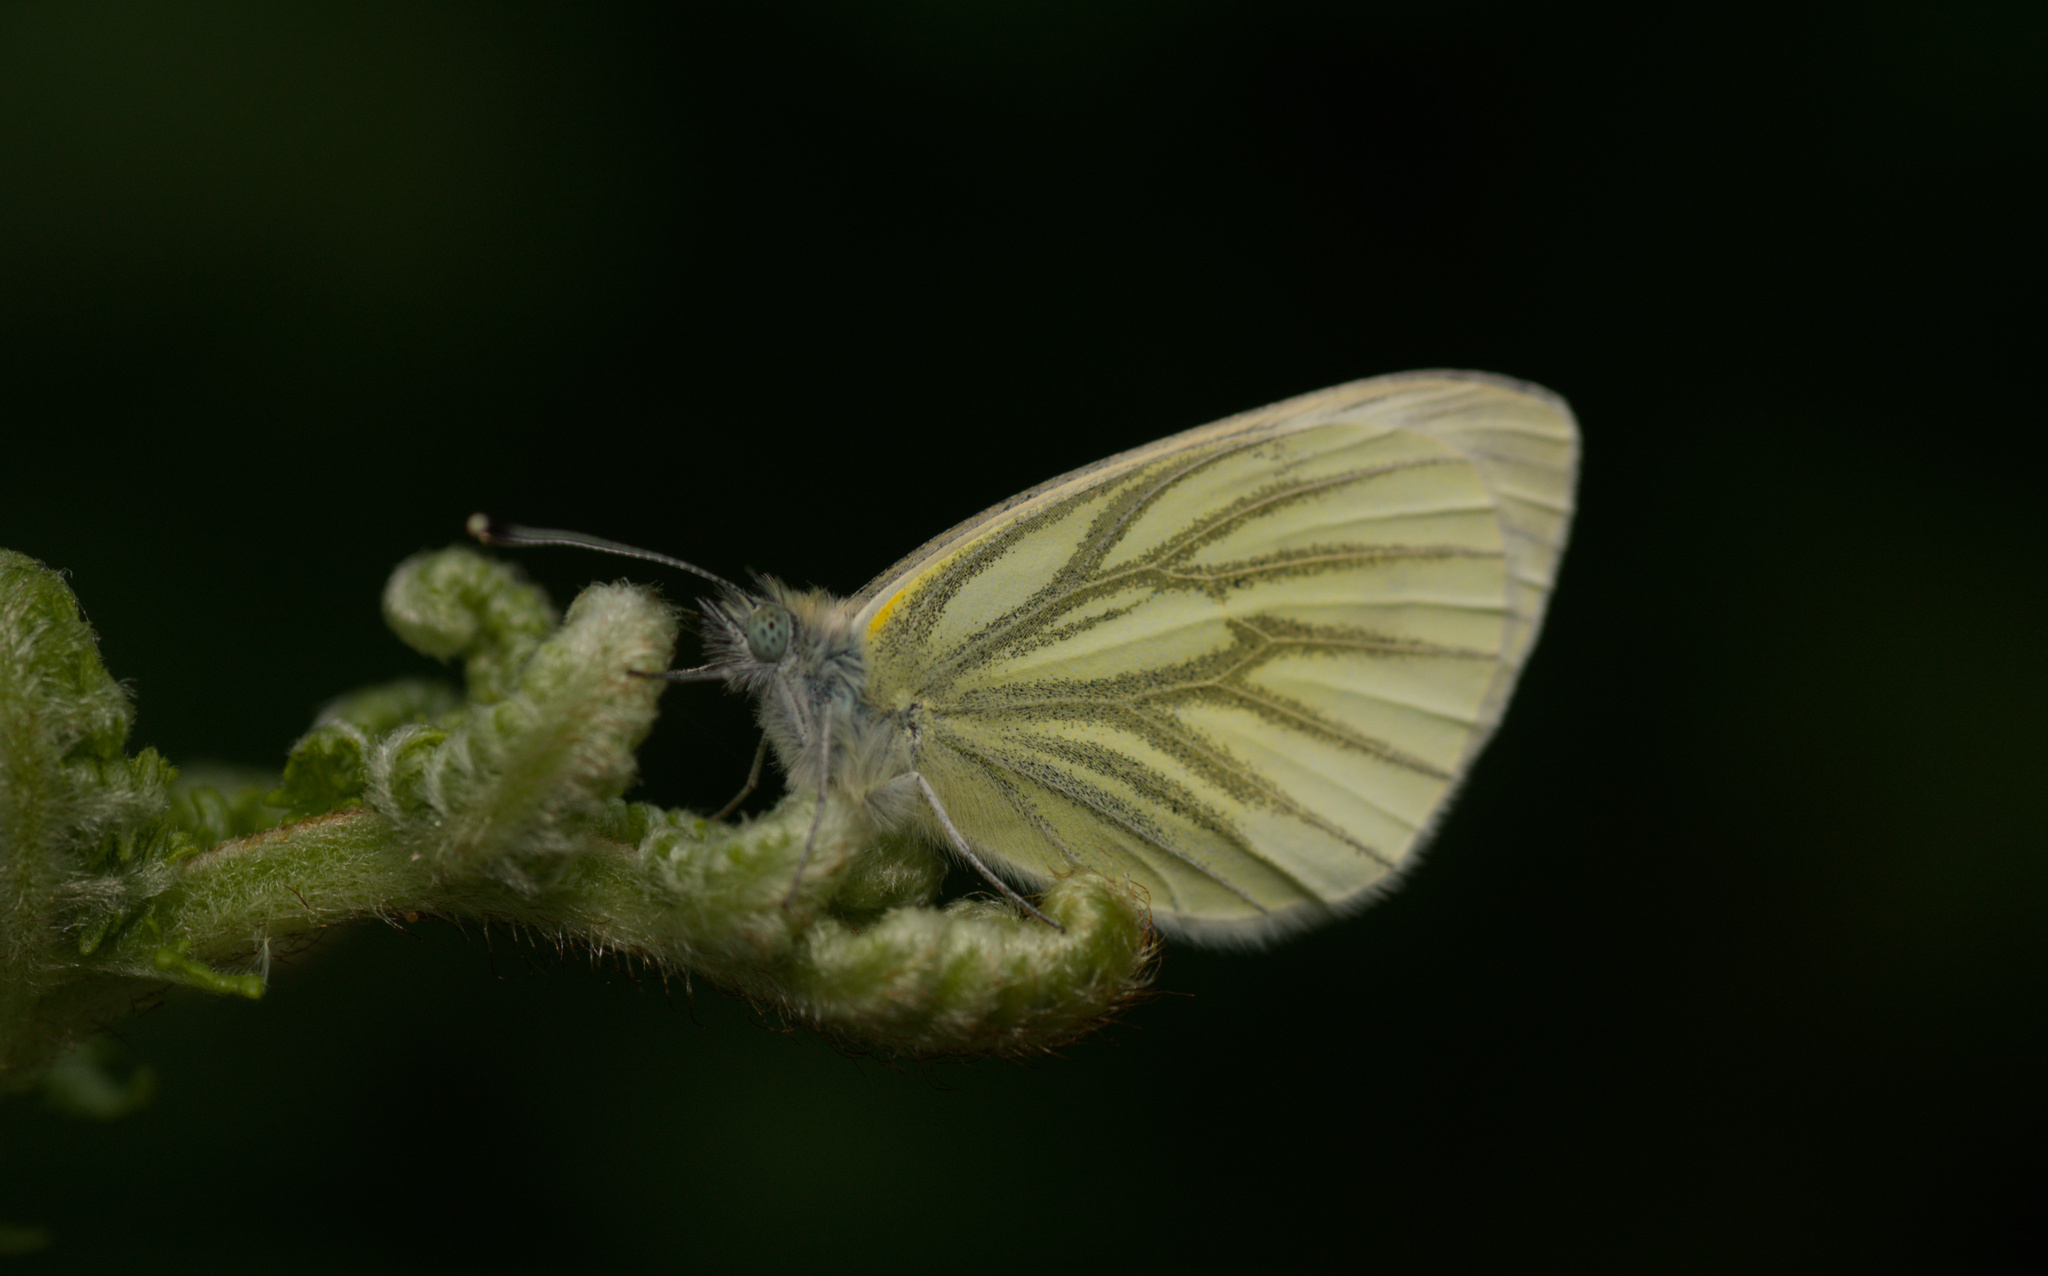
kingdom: Animalia
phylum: Arthropoda
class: Insecta
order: Lepidoptera
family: Pieridae
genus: Pieris
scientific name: Pieris napi
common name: Green-veined white
